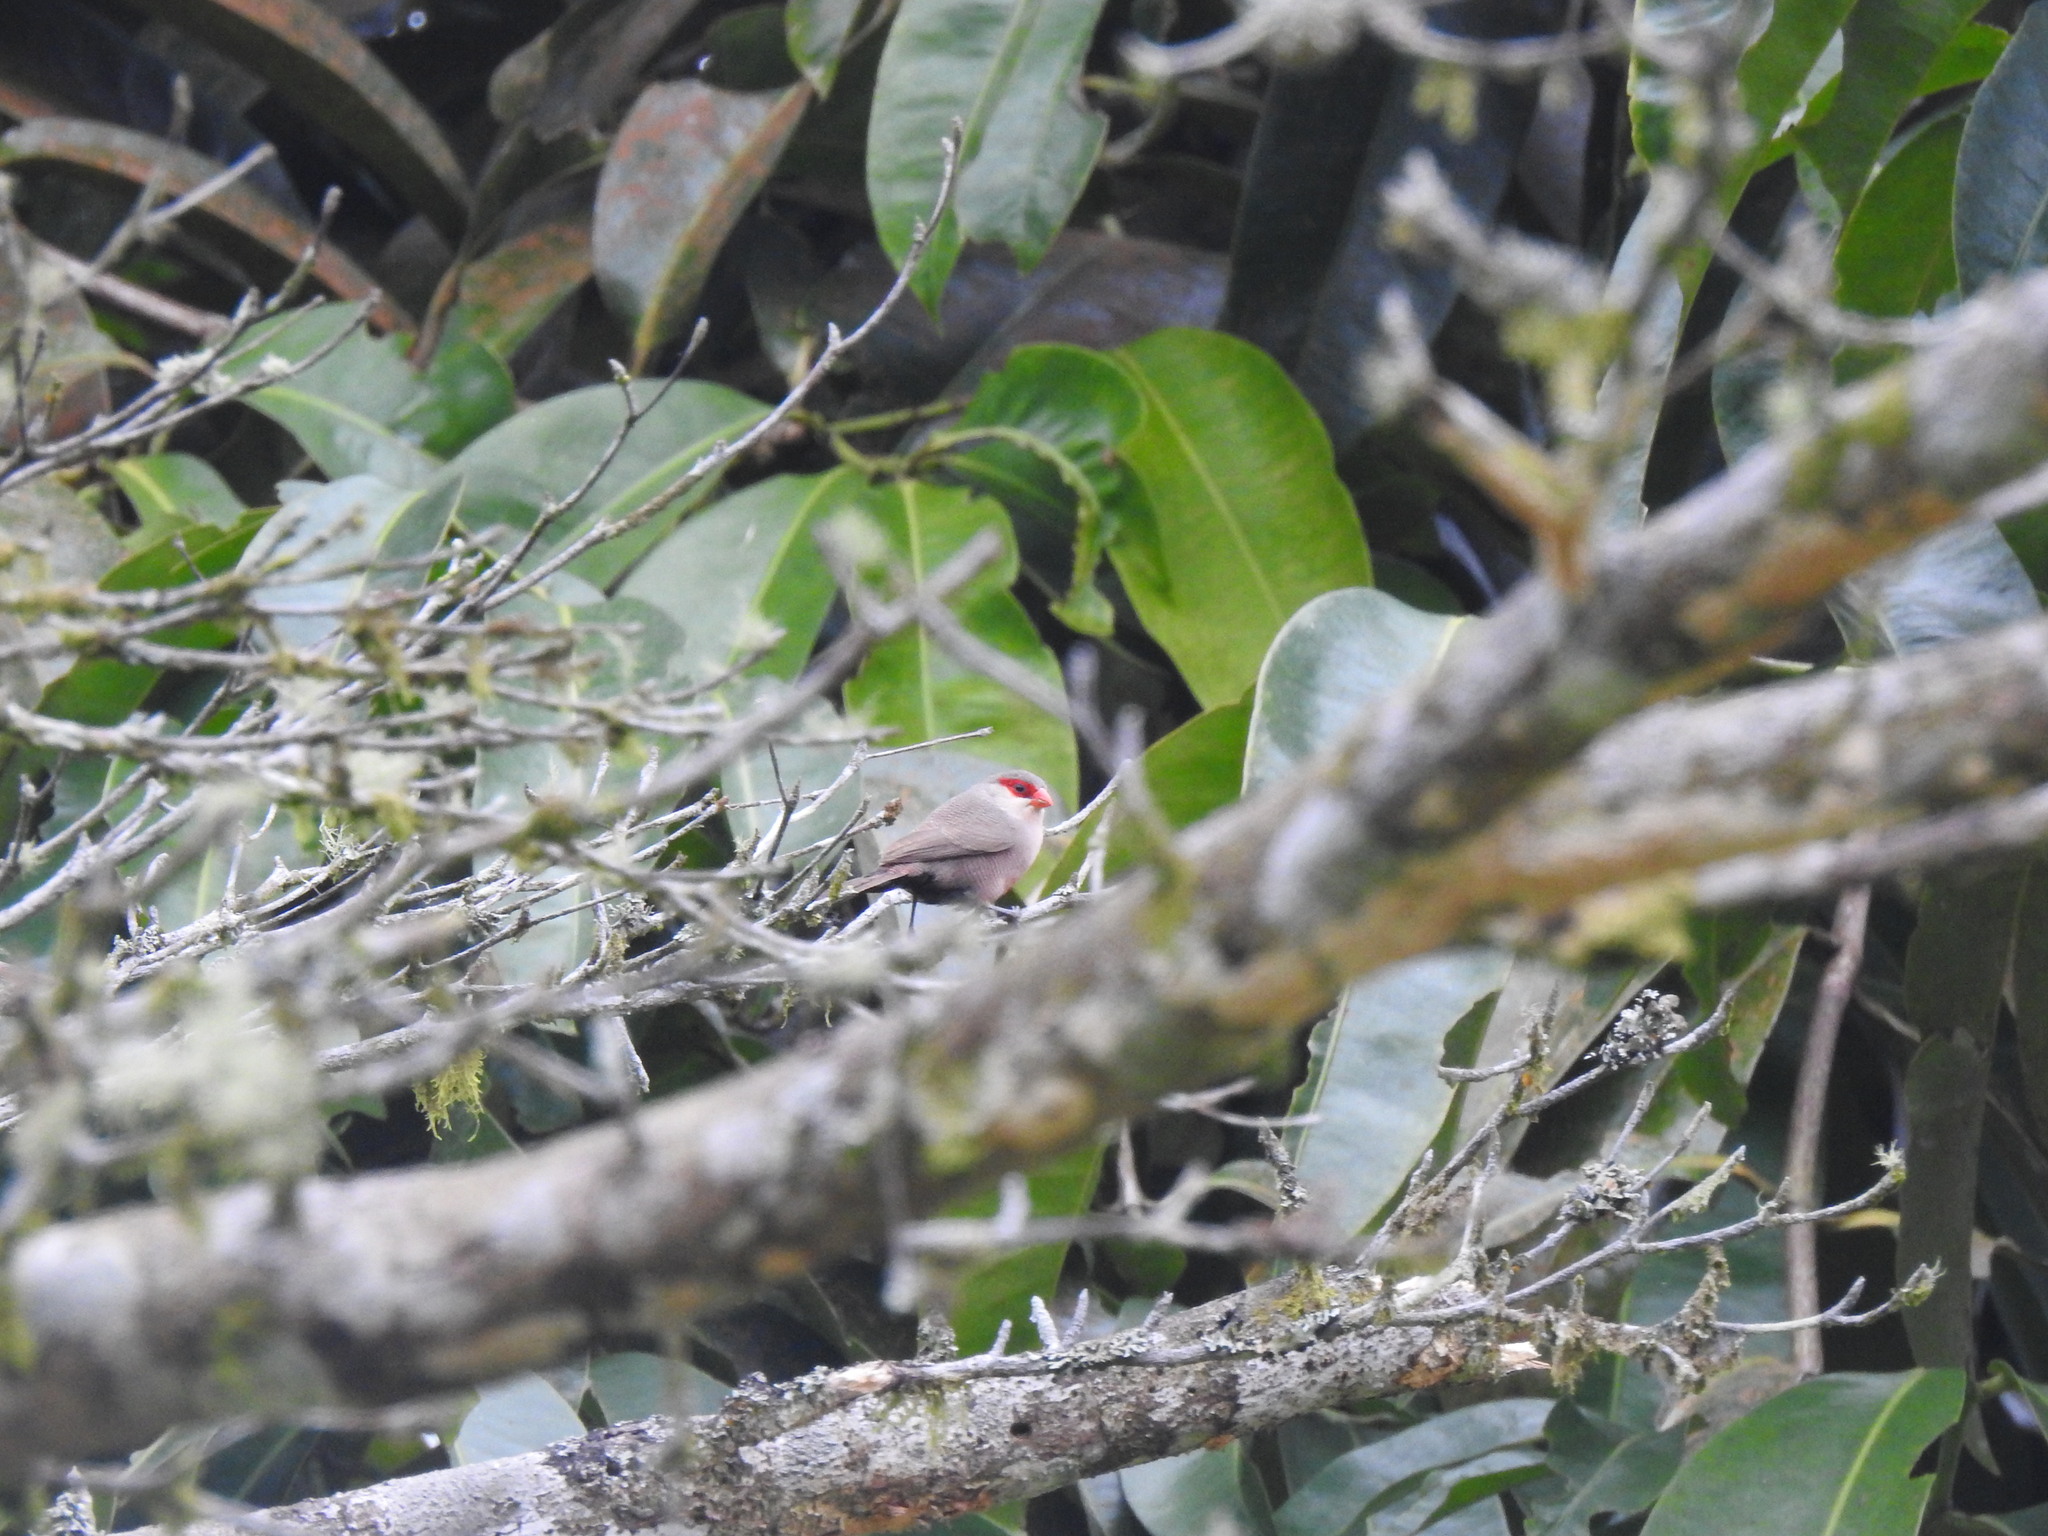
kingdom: Animalia
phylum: Chordata
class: Aves
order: Passeriformes
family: Estrildidae
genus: Estrilda
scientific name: Estrilda astrild
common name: Common waxbill
